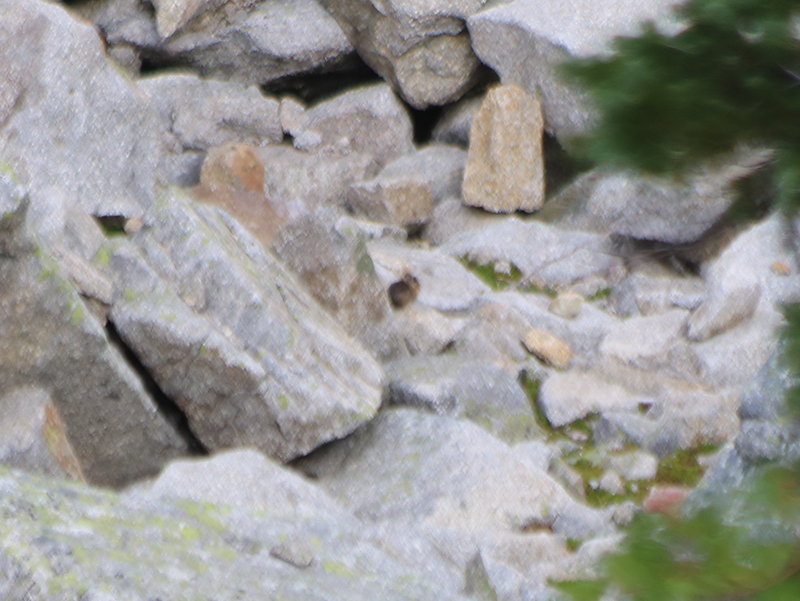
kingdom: Animalia
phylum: Chordata
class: Mammalia
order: Lagomorpha
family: Ochotonidae
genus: Ochotona
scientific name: Ochotona princeps
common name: American pika
